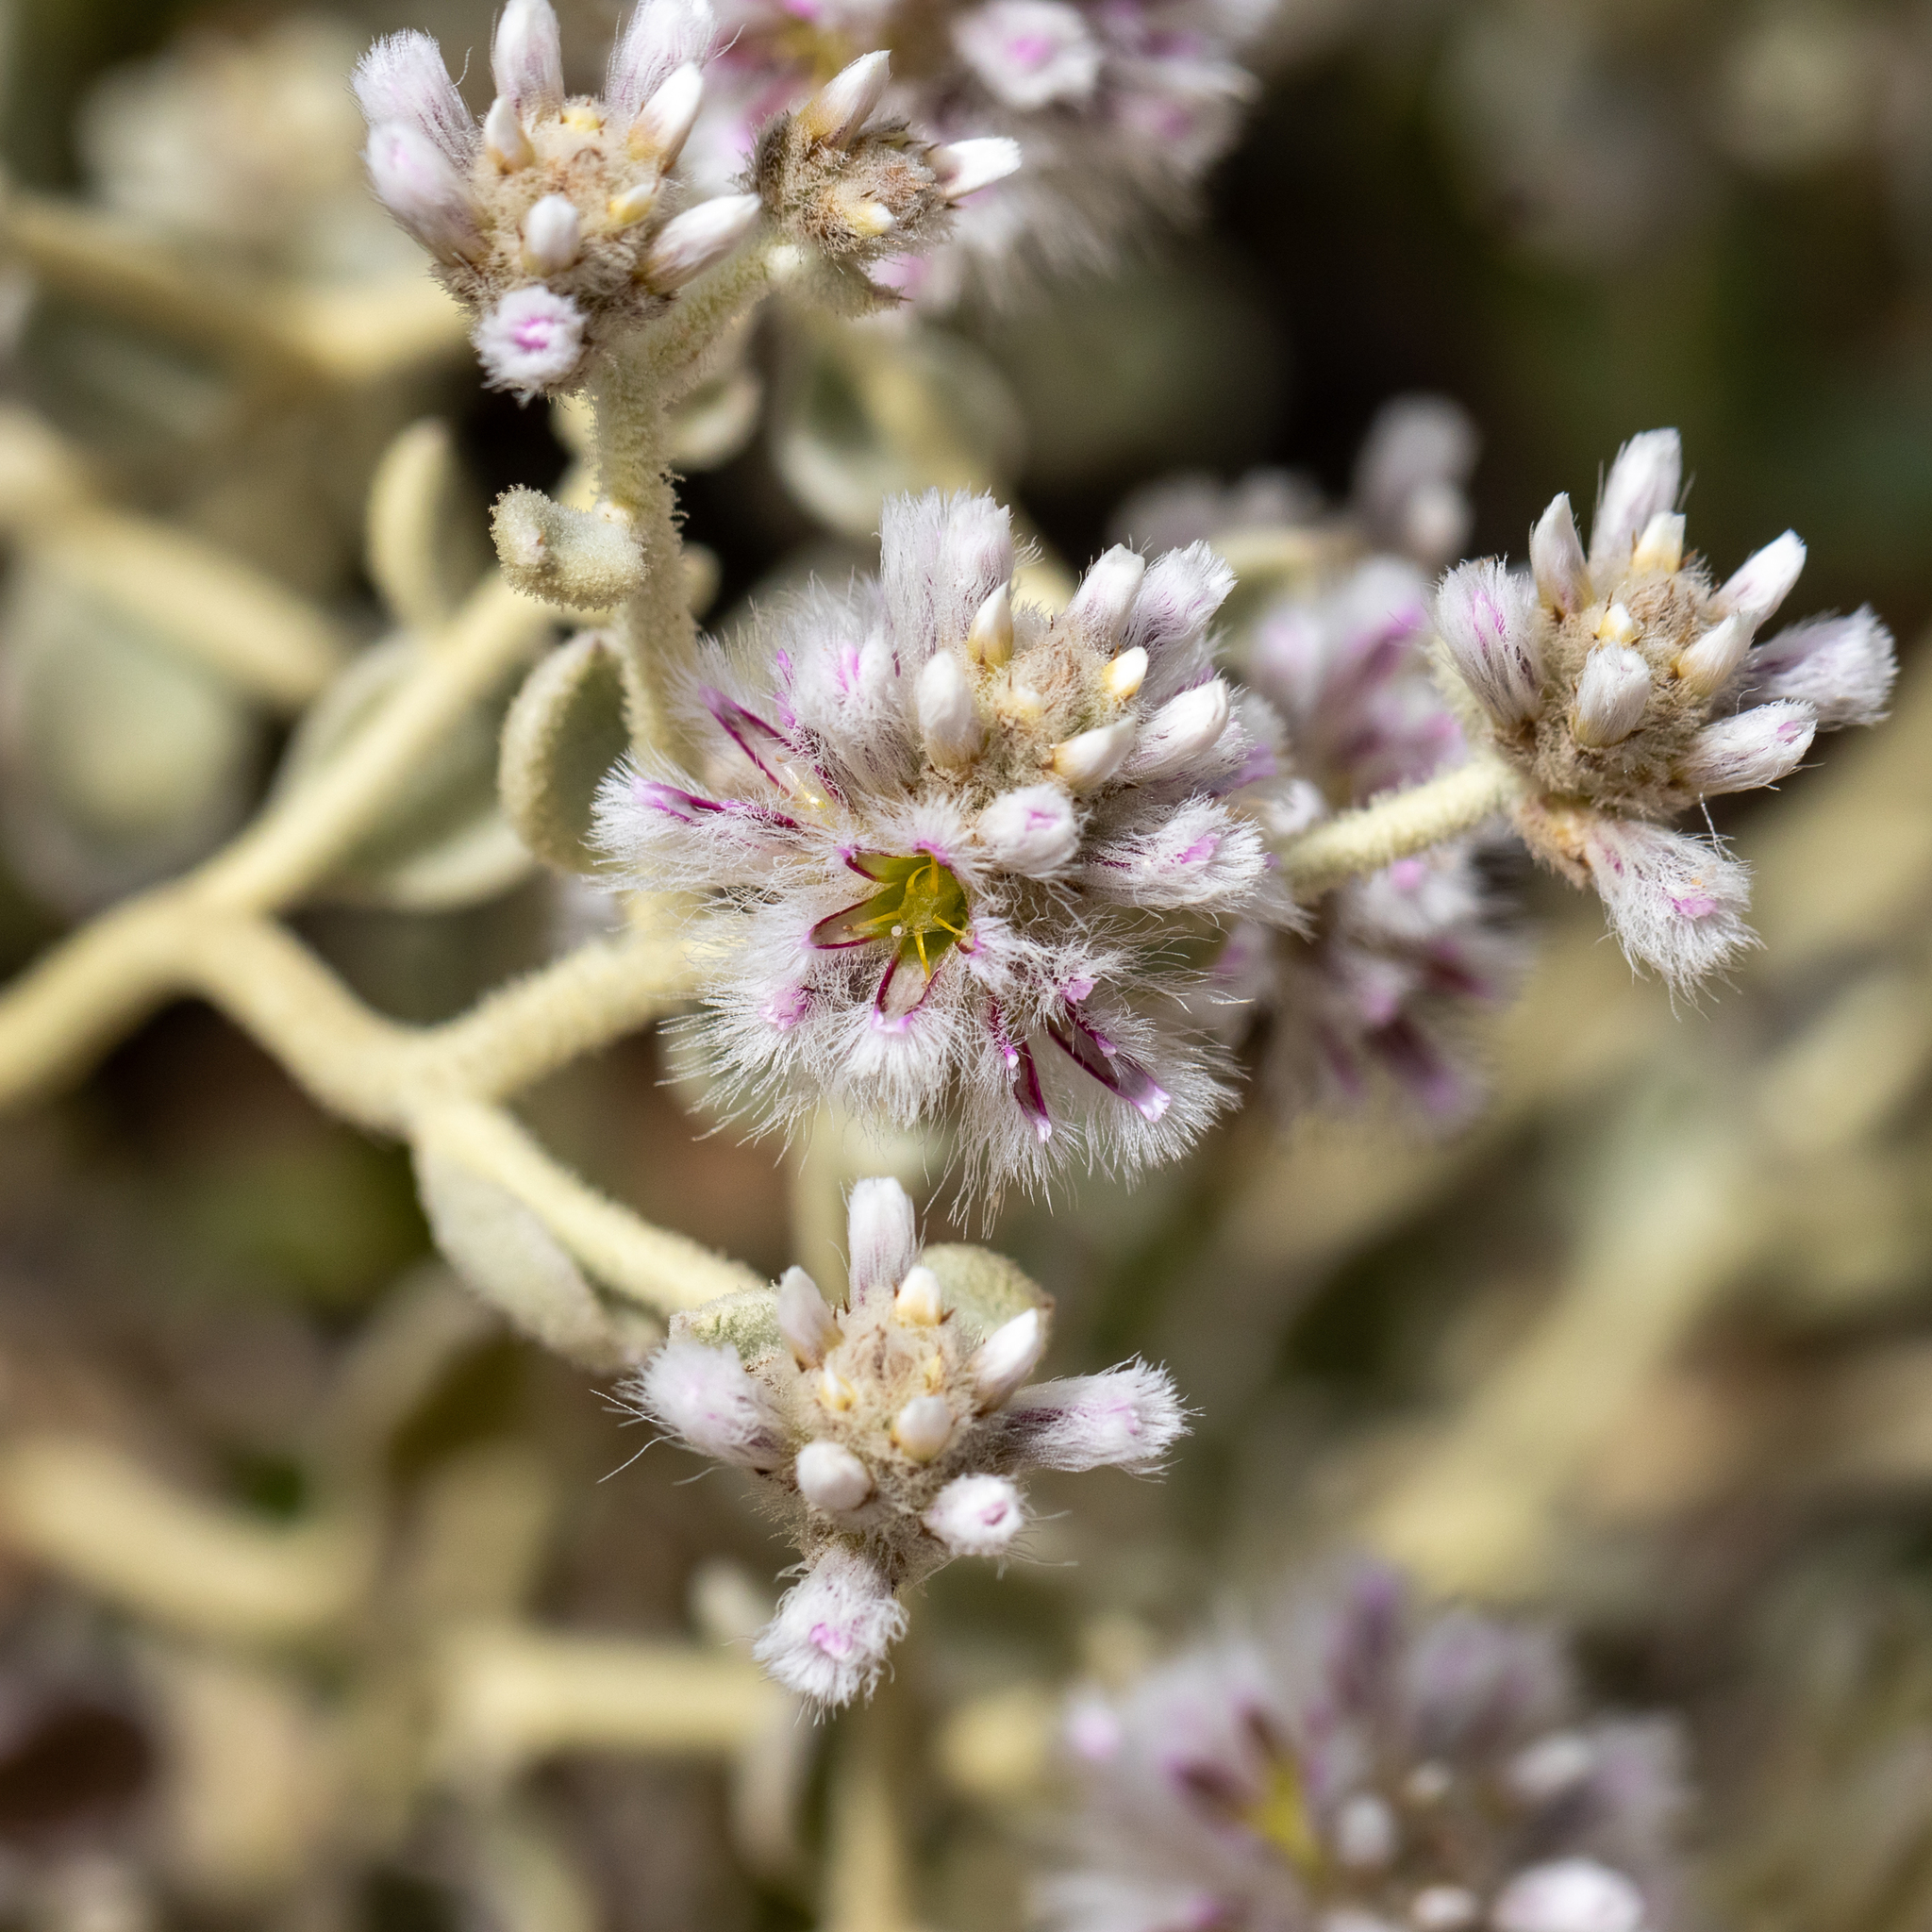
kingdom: Plantae
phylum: Tracheophyta
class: Magnoliopsida
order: Caryophyllales
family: Amaranthaceae
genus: Ptilotus
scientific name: Ptilotus obovatus
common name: Cottonbush
